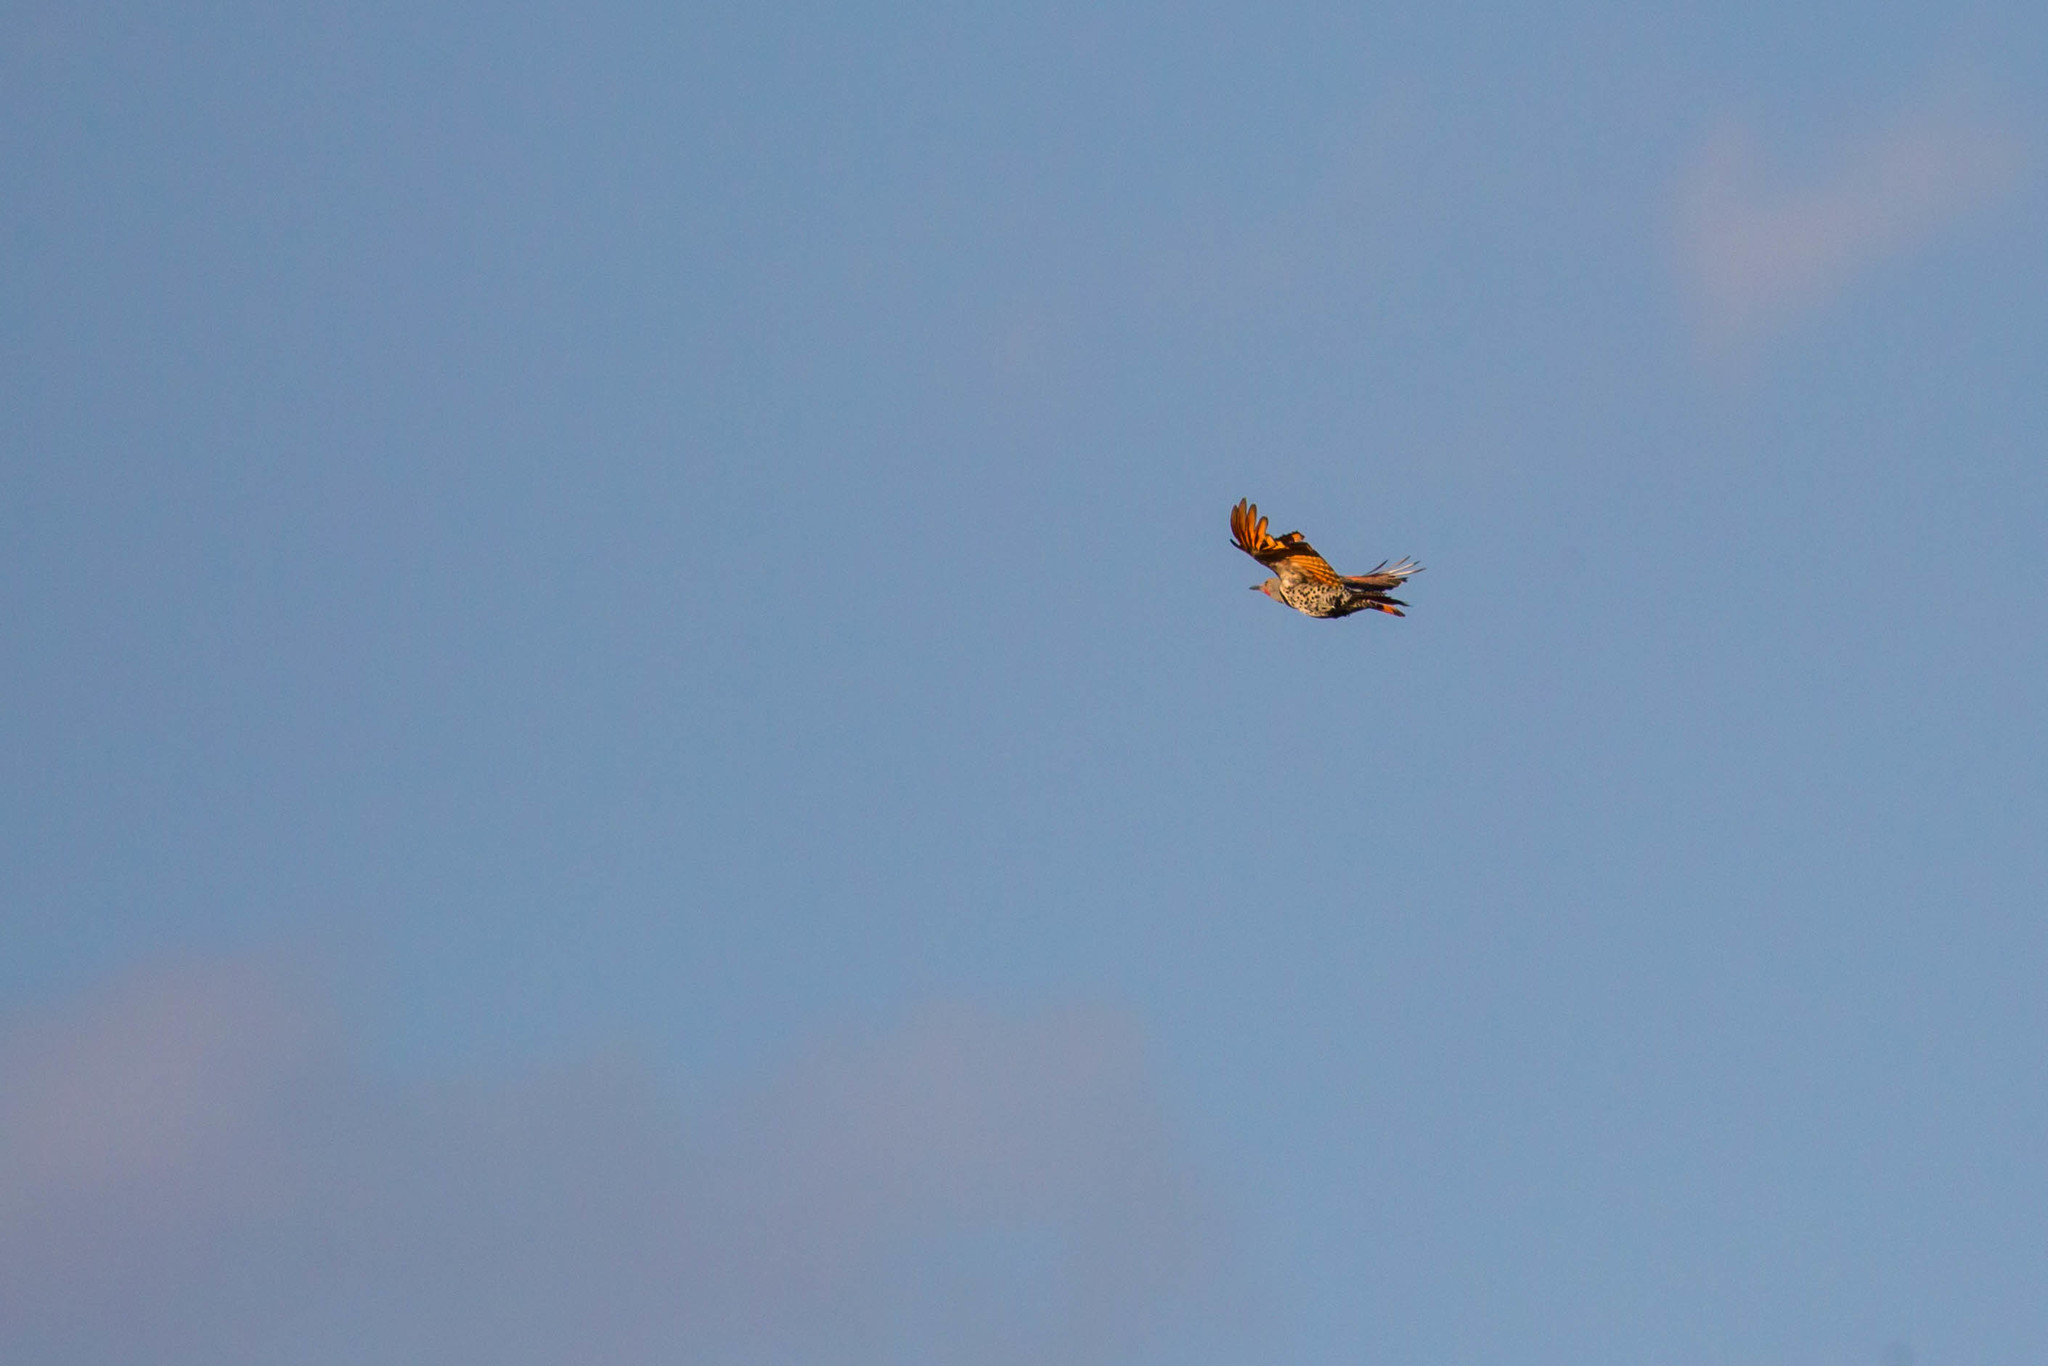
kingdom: Animalia
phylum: Chordata
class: Aves
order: Piciformes
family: Picidae
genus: Colaptes
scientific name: Colaptes auratus
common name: Northern flicker
